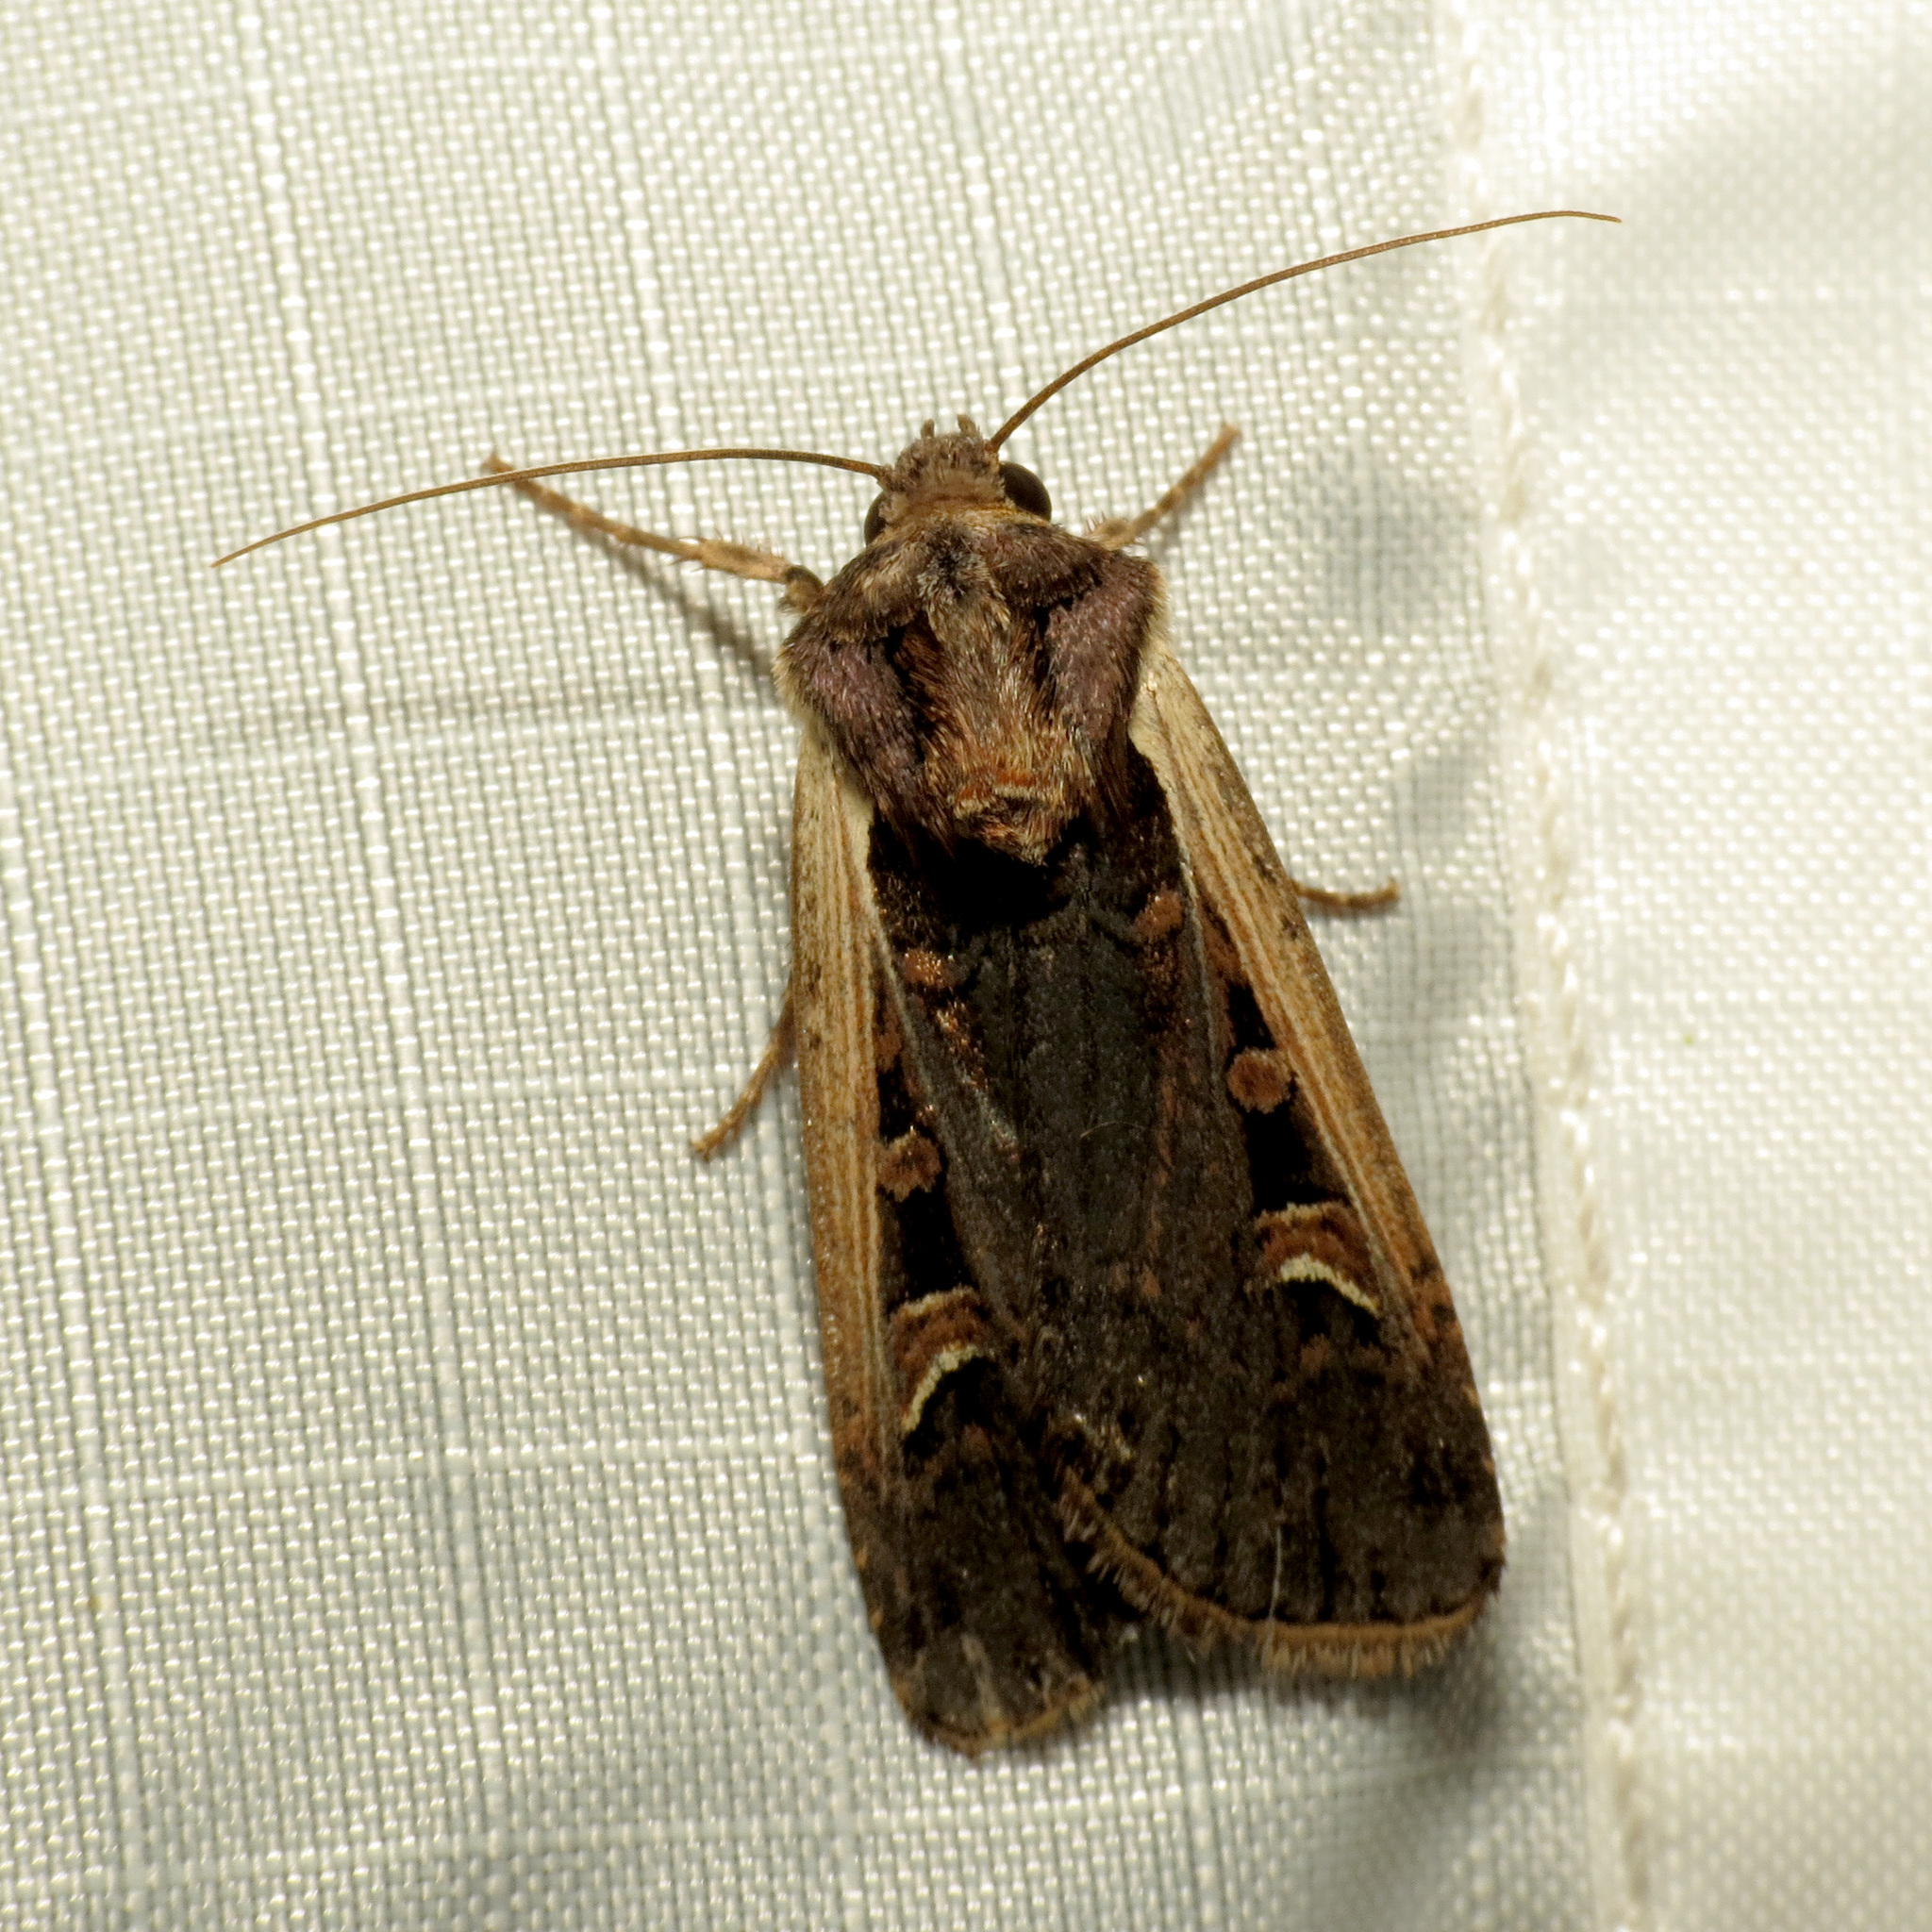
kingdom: Animalia
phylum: Arthropoda
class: Insecta
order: Lepidoptera
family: Noctuidae
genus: Striacosta
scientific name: Striacosta albicosta
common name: Western bean cutworm moth
